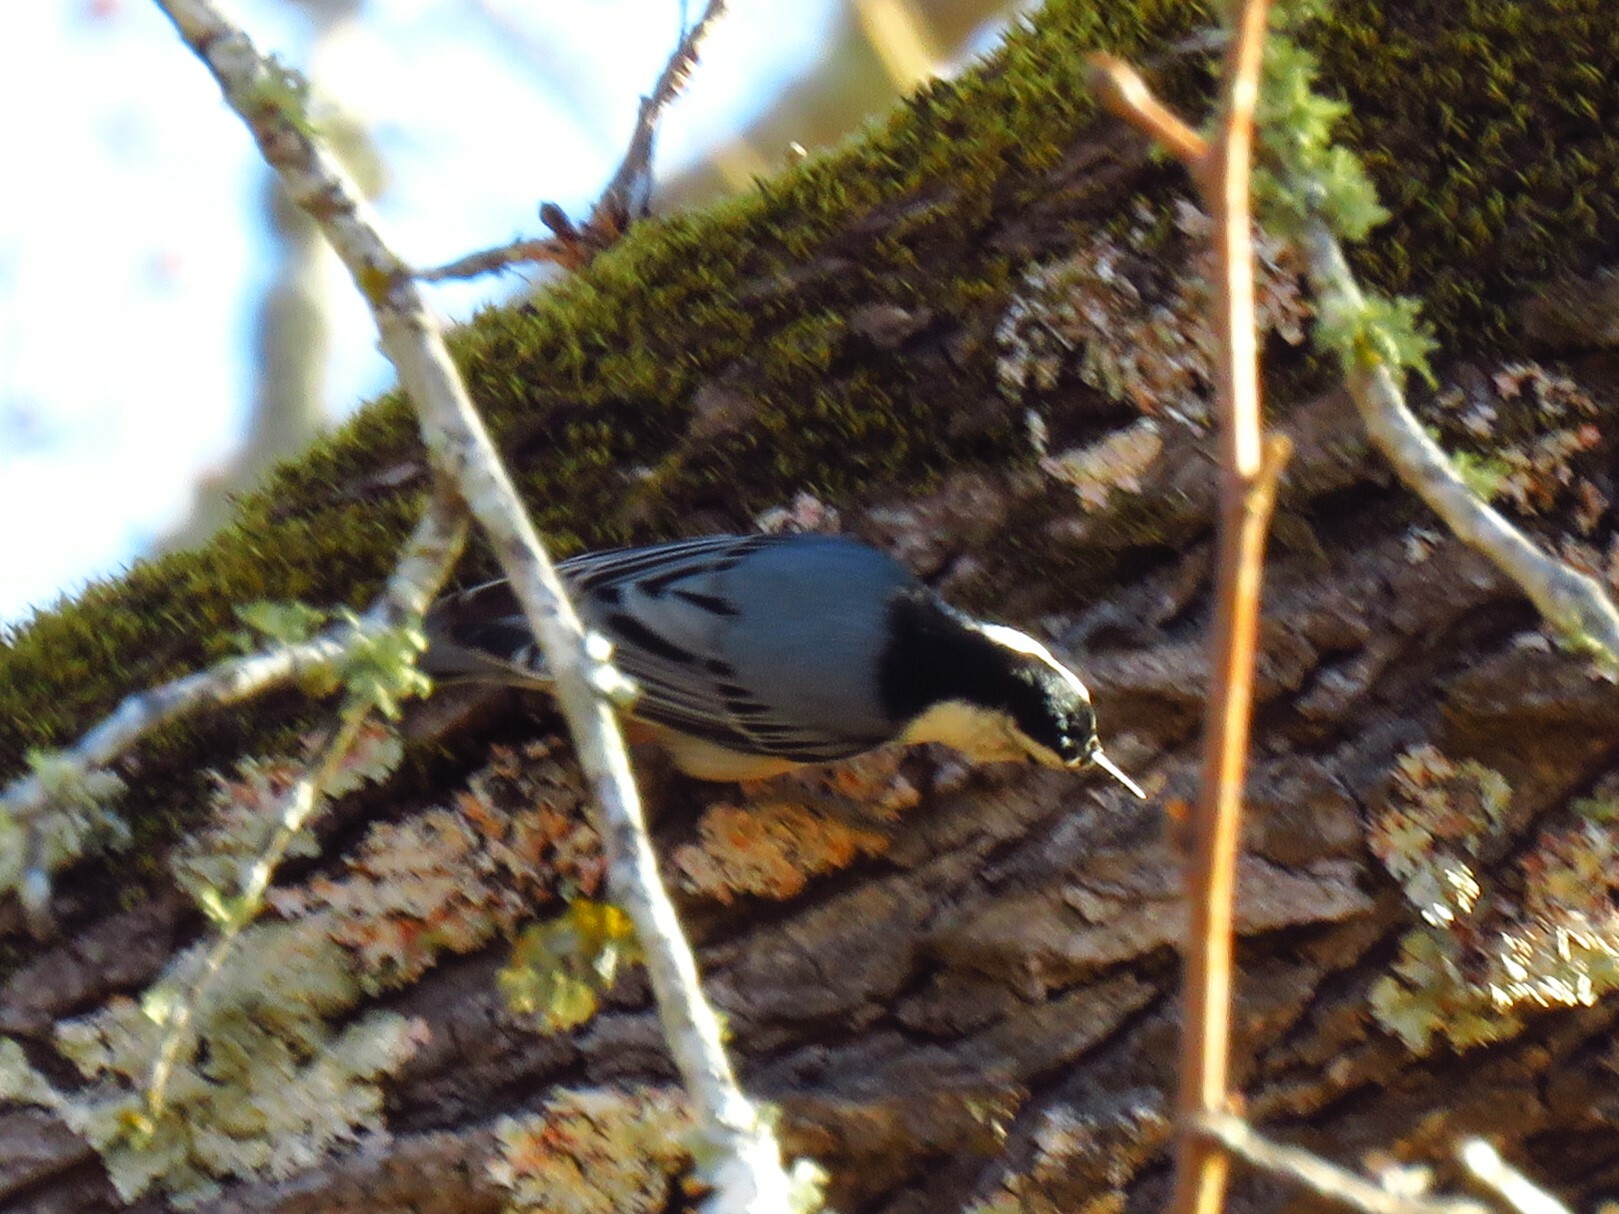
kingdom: Animalia
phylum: Chordata
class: Aves
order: Passeriformes
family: Sittidae
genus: Sitta
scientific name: Sitta carolinensis
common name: White-breasted nuthatch
